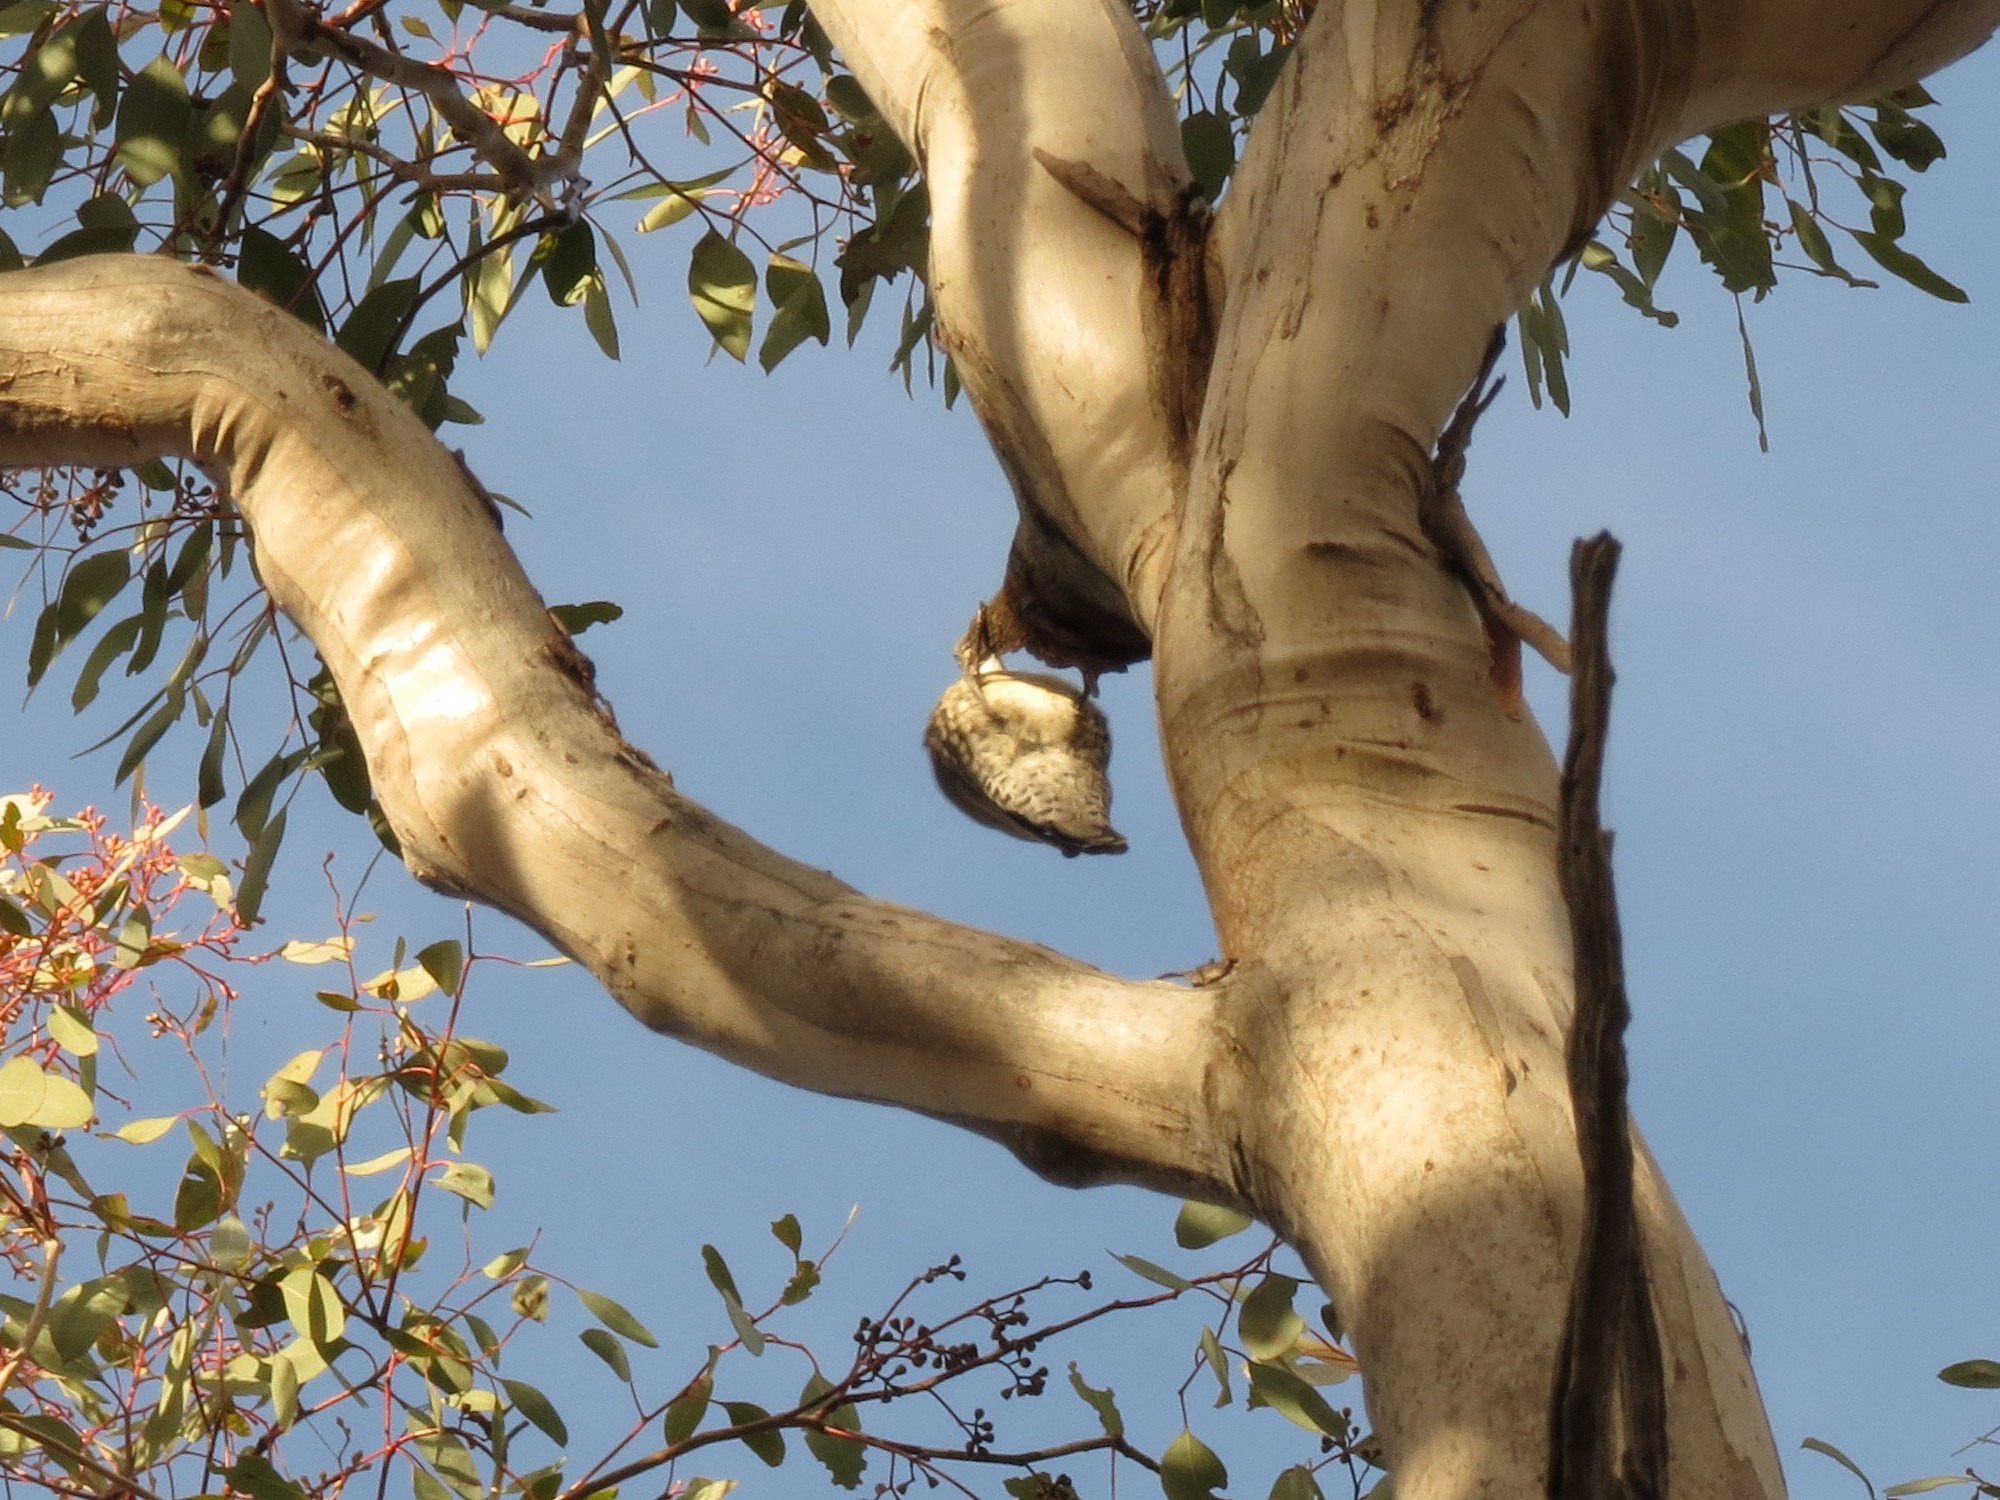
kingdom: Animalia
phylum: Chordata
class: Aves
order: Passeriformes
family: Climacteridae
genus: Cormobates
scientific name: Cormobates leucophaea
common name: White-throated treecreeper
